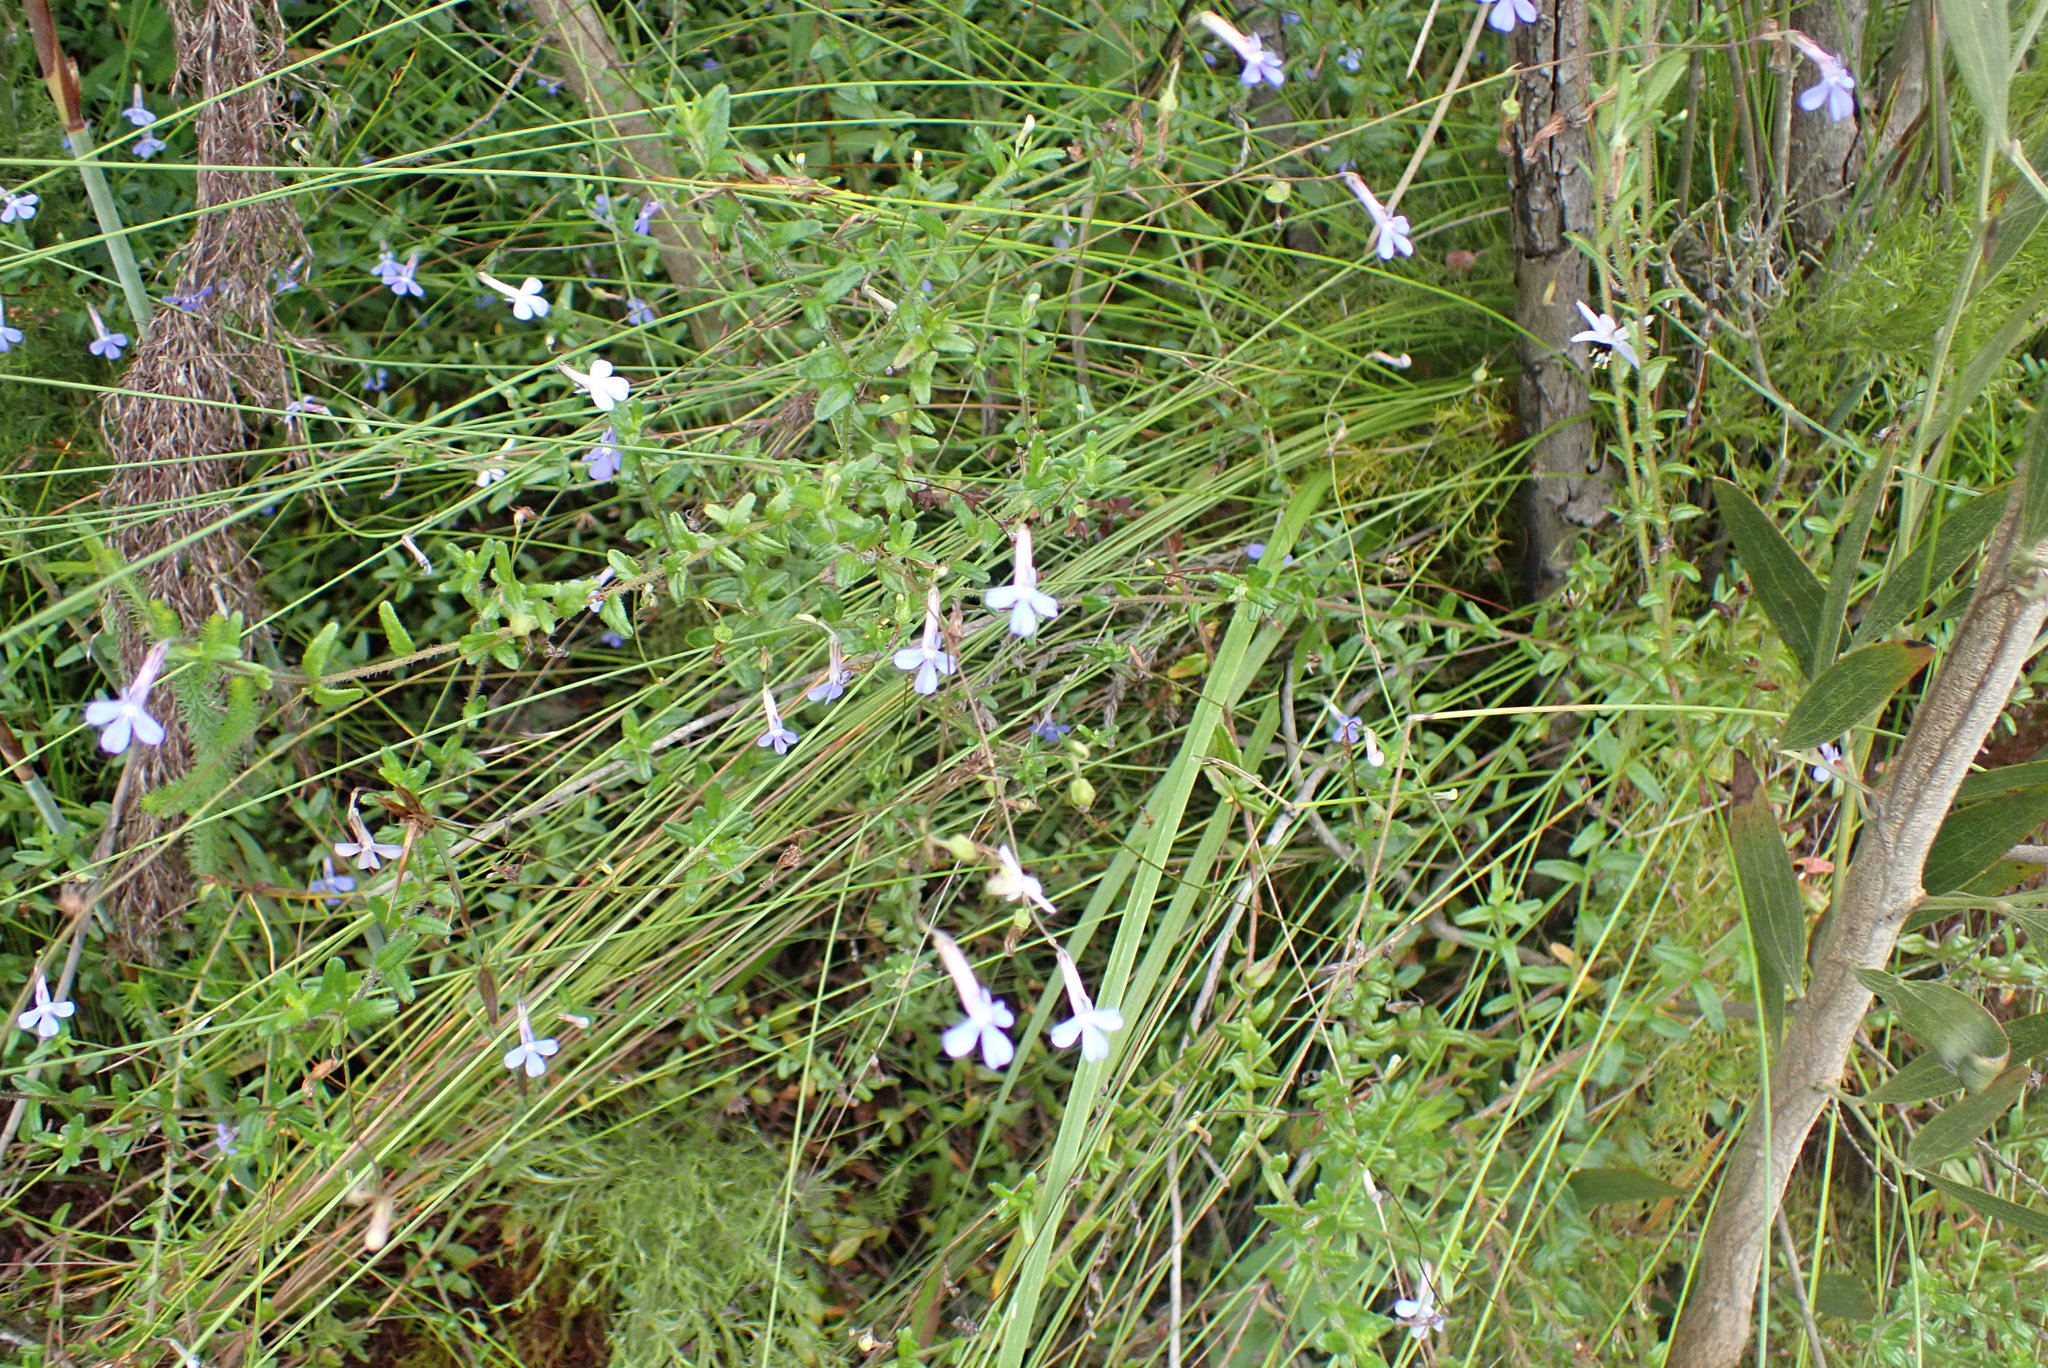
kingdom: Plantae
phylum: Tracheophyta
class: Magnoliopsida
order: Asterales
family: Campanulaceae
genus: Lobelia
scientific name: Lobelia neglecta
